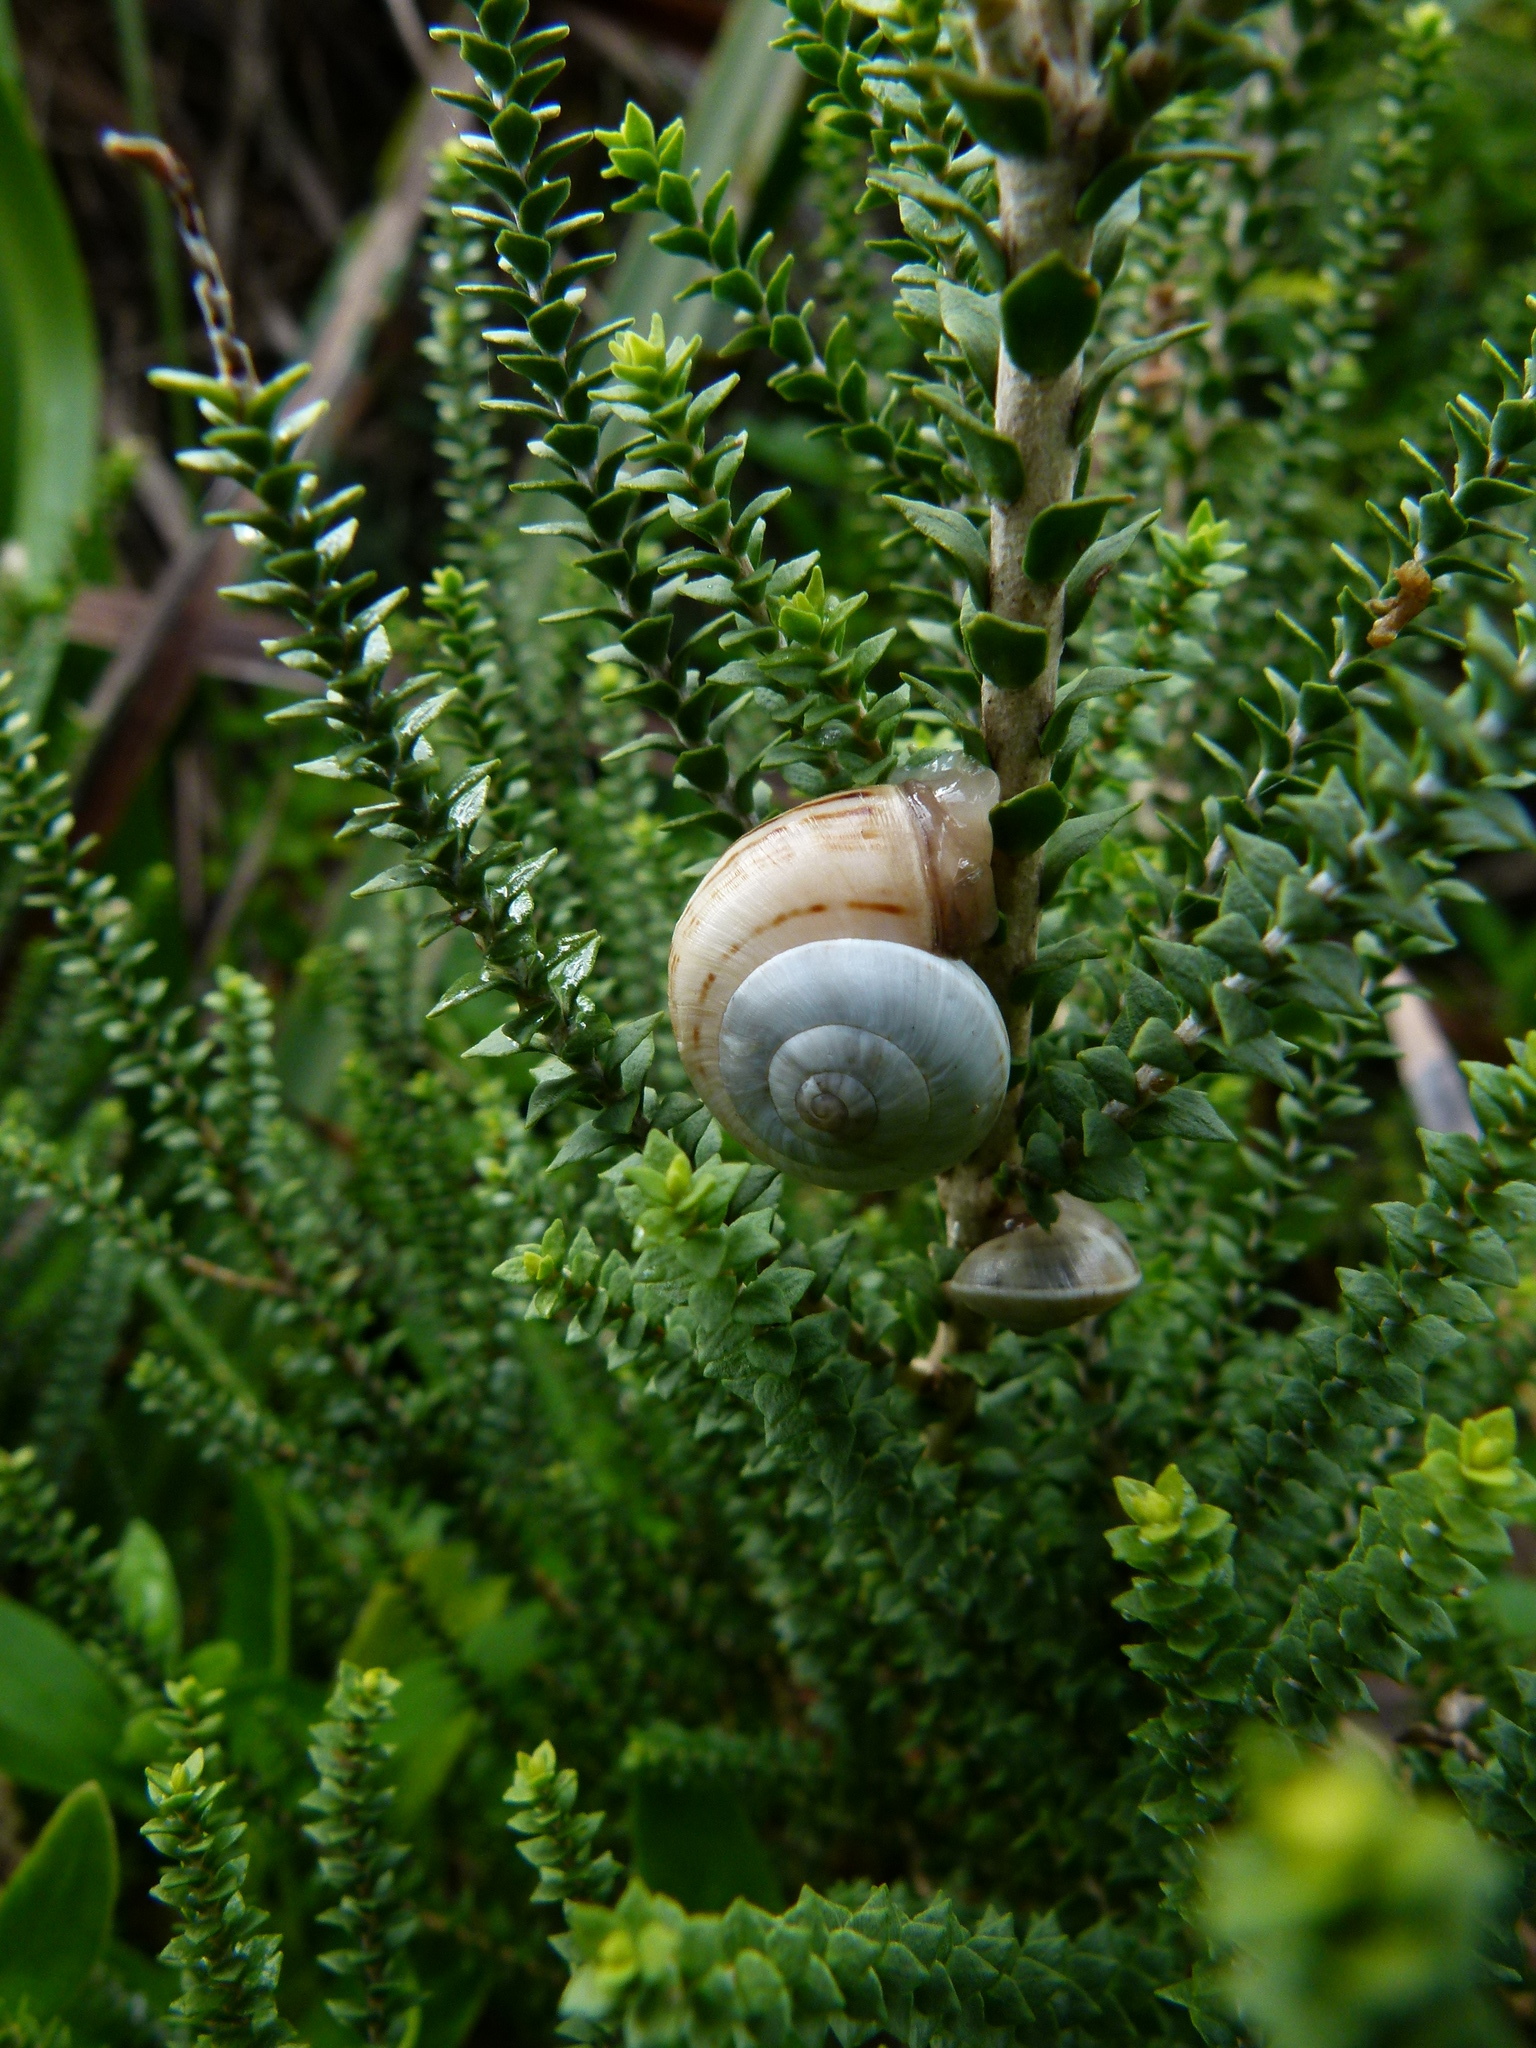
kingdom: Animalia
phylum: Mollusca
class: Gastropoda
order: Stylommatophora
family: Helicidae
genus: Theba
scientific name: Theba pisana
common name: White snail
